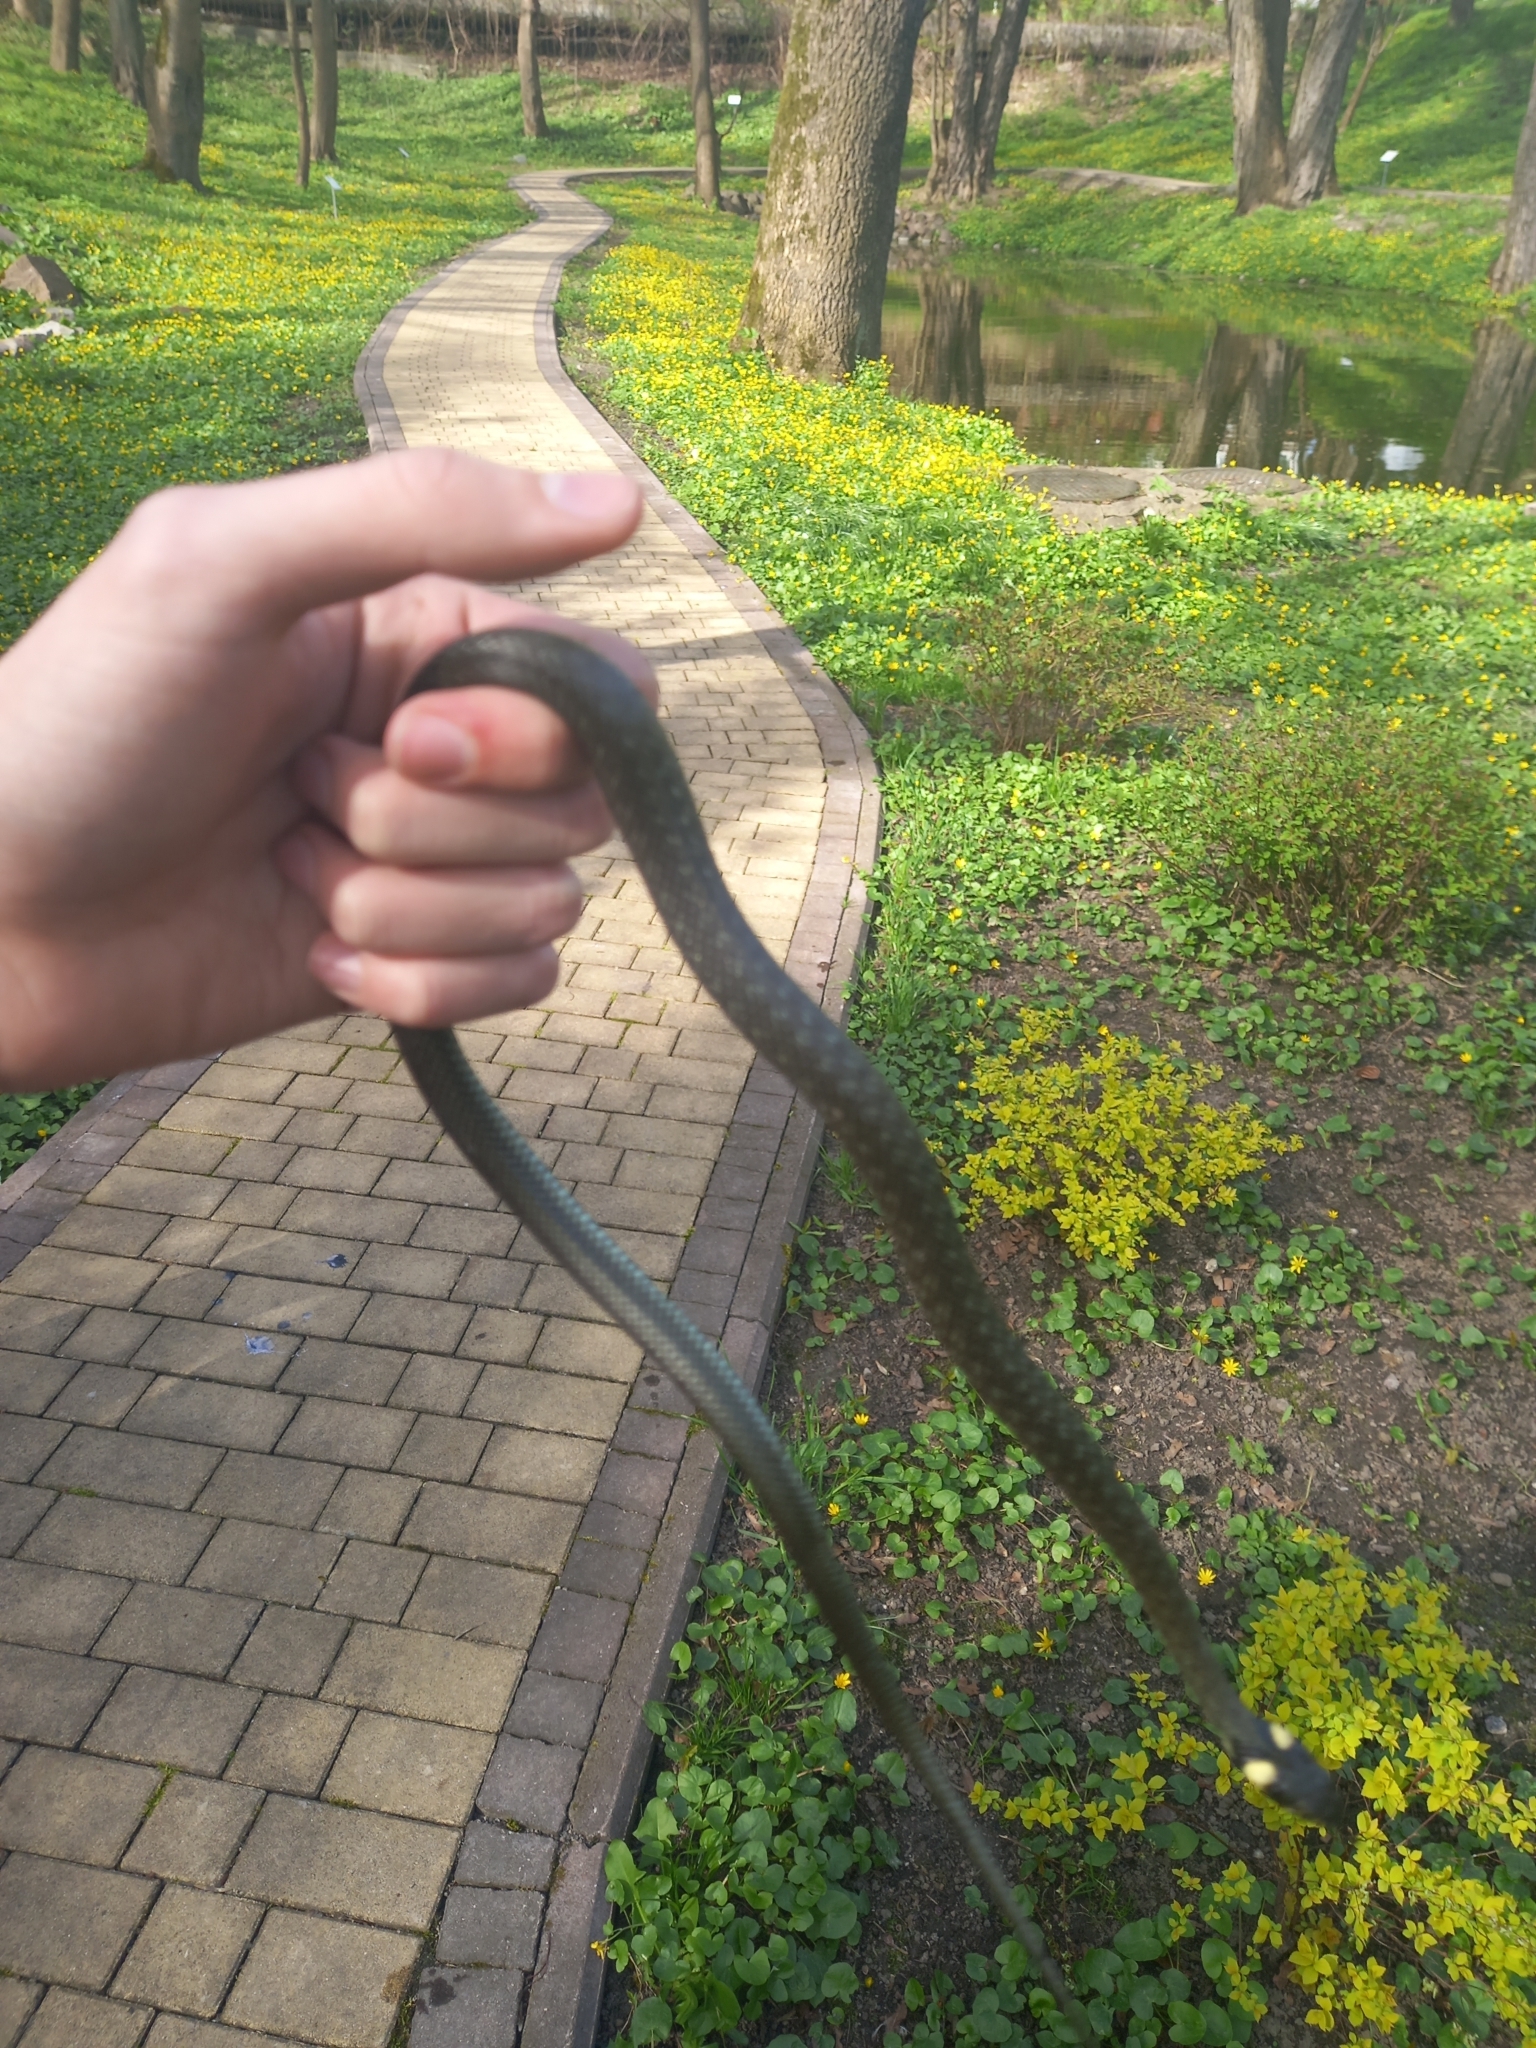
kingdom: Animalia
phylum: Chordata
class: Squamata
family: Colubridae
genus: Natrix
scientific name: Natrix natrix
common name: Grass snake
